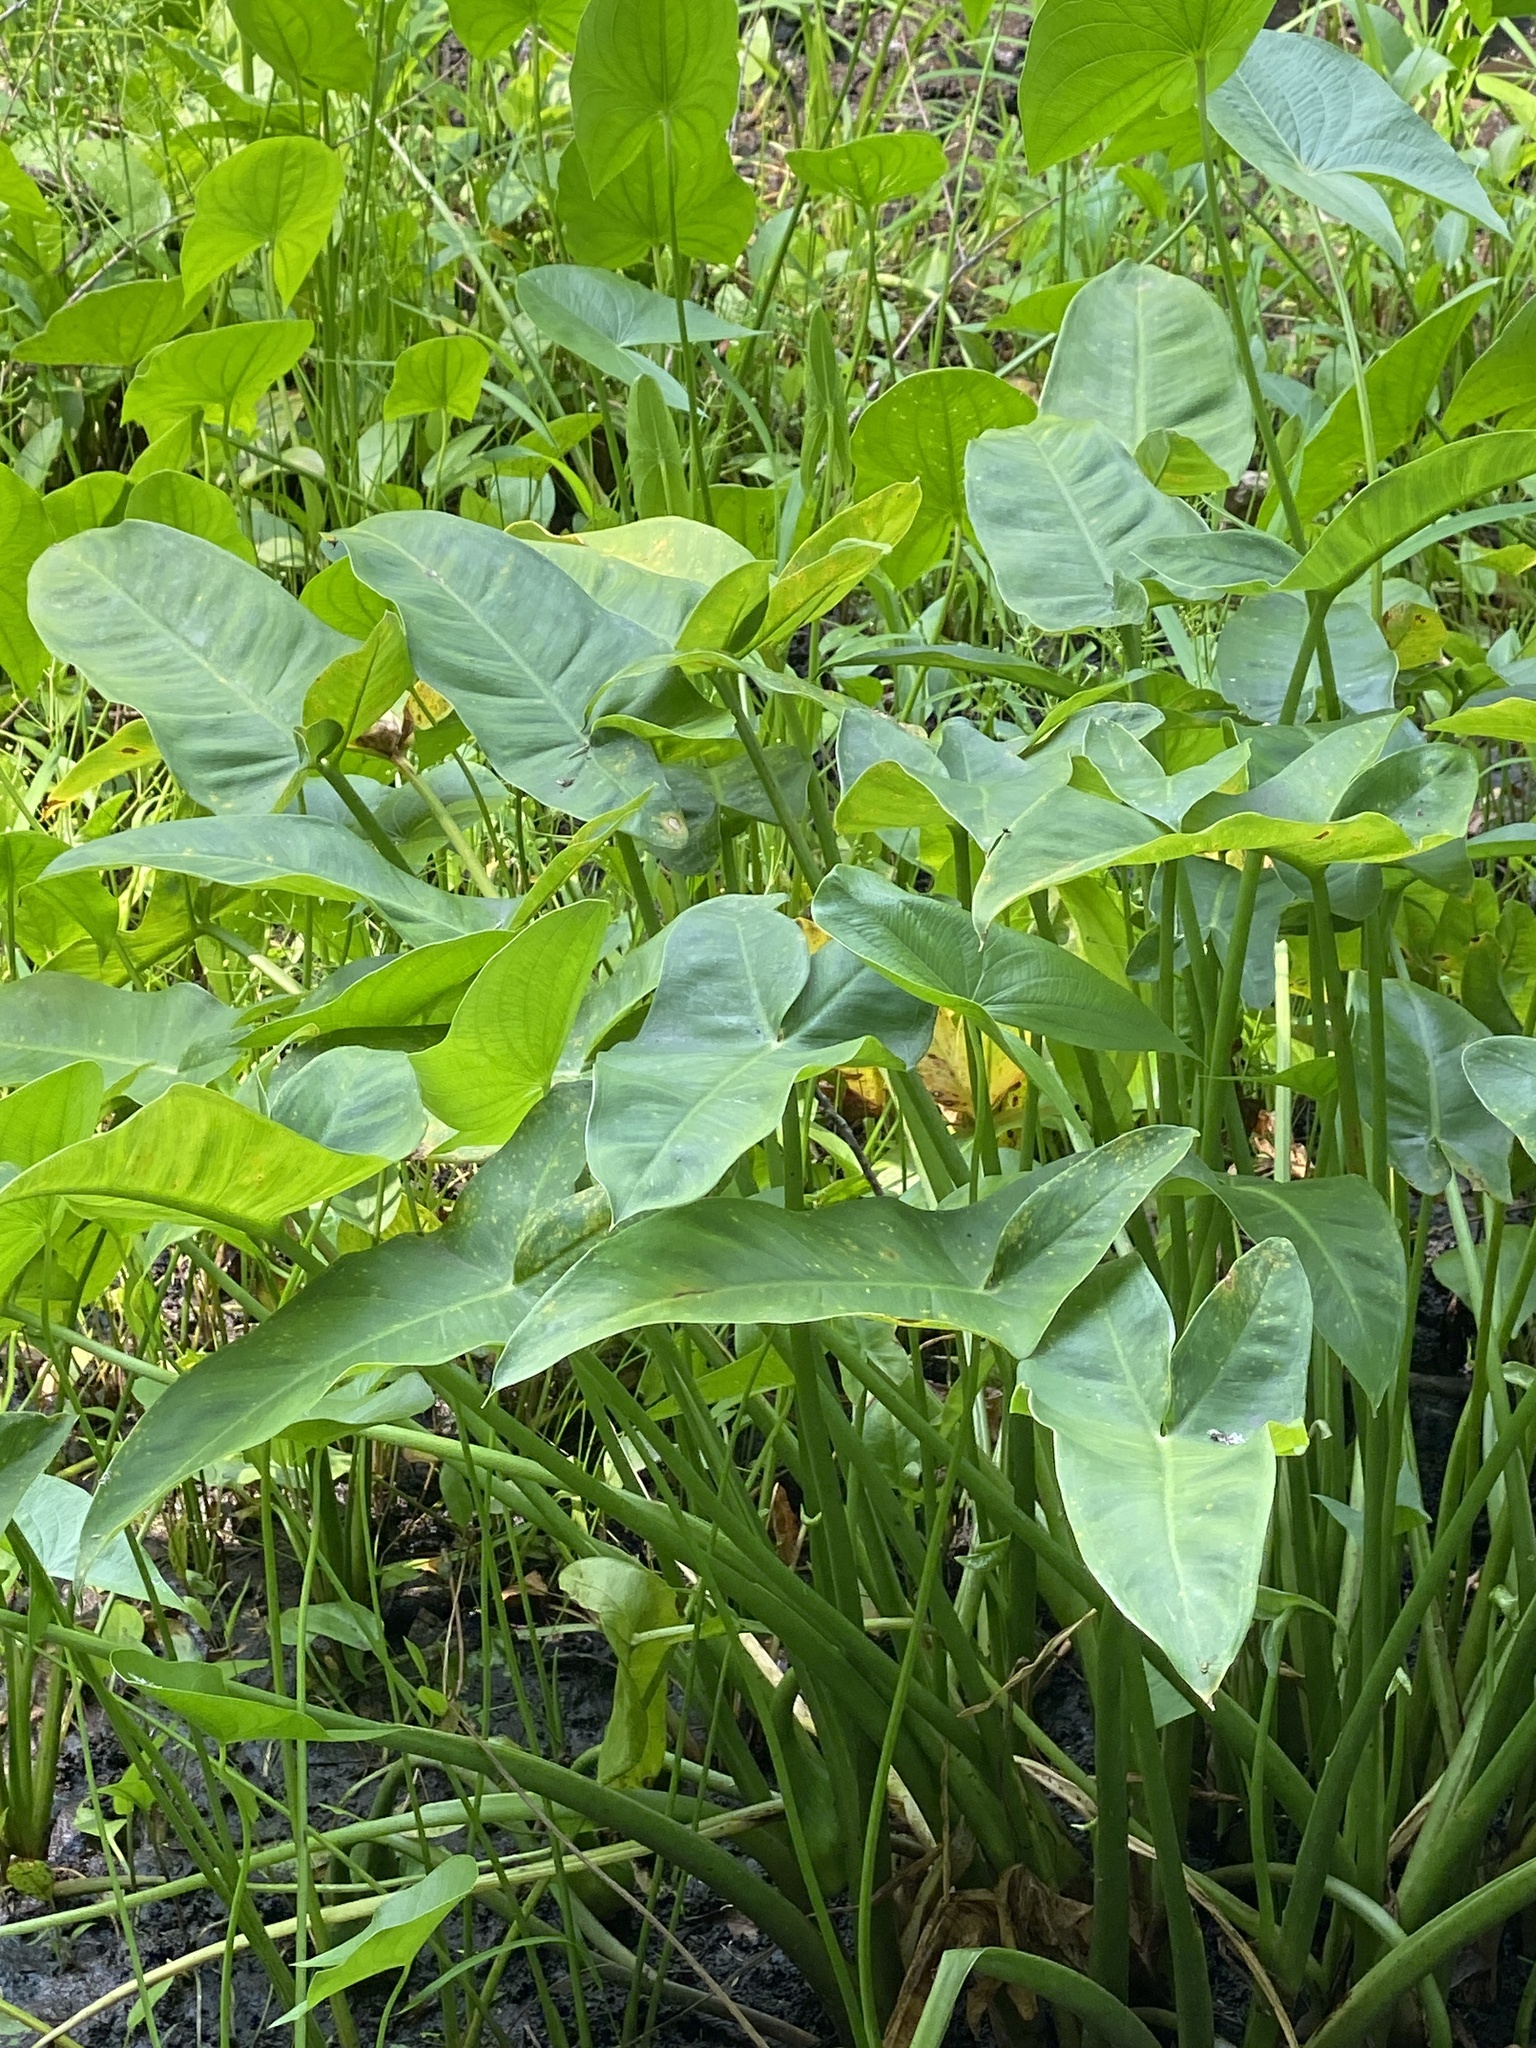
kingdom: Plantae
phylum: Tracheophyta
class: Liliopsida
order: Alismatales
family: Araceae
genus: Peltandra
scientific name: Peltandra virginica
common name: Arrow arum
